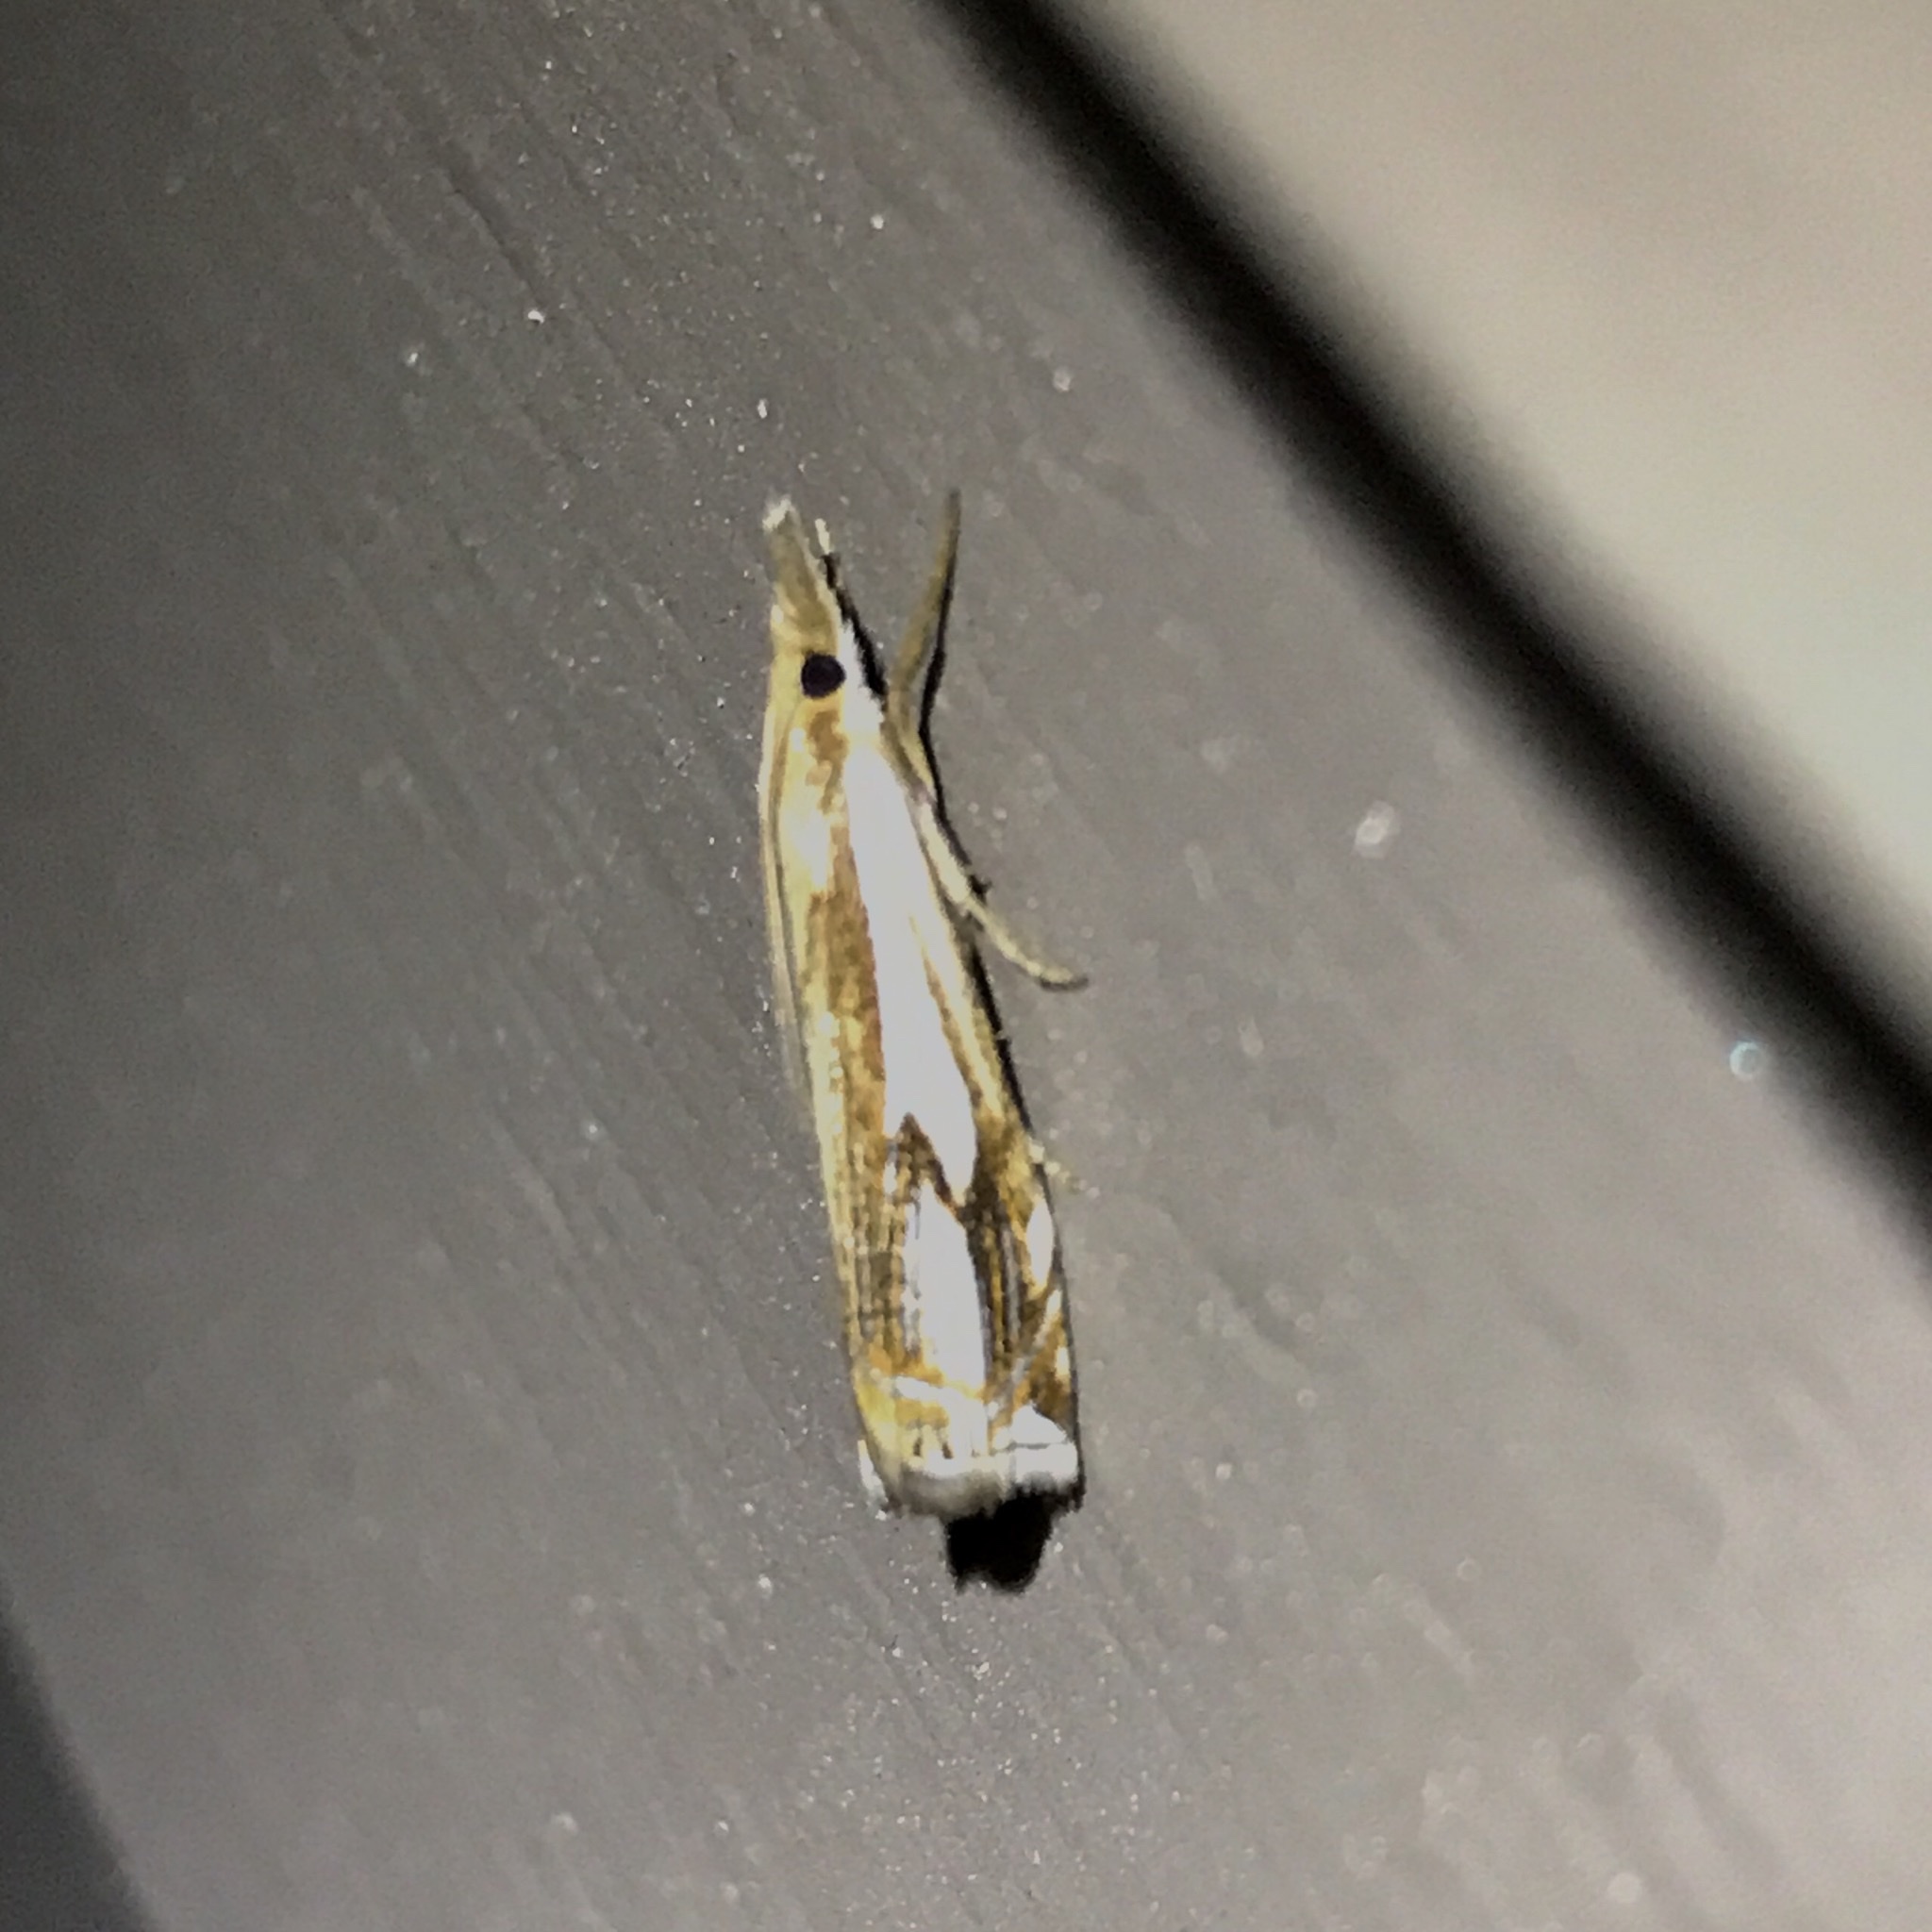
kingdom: Animalia
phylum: Arthropoda
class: Insecta
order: Lepidoptera
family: Crambidae
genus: Crambus
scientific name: Crambus agitatellus
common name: Double-banded grass-veneer
